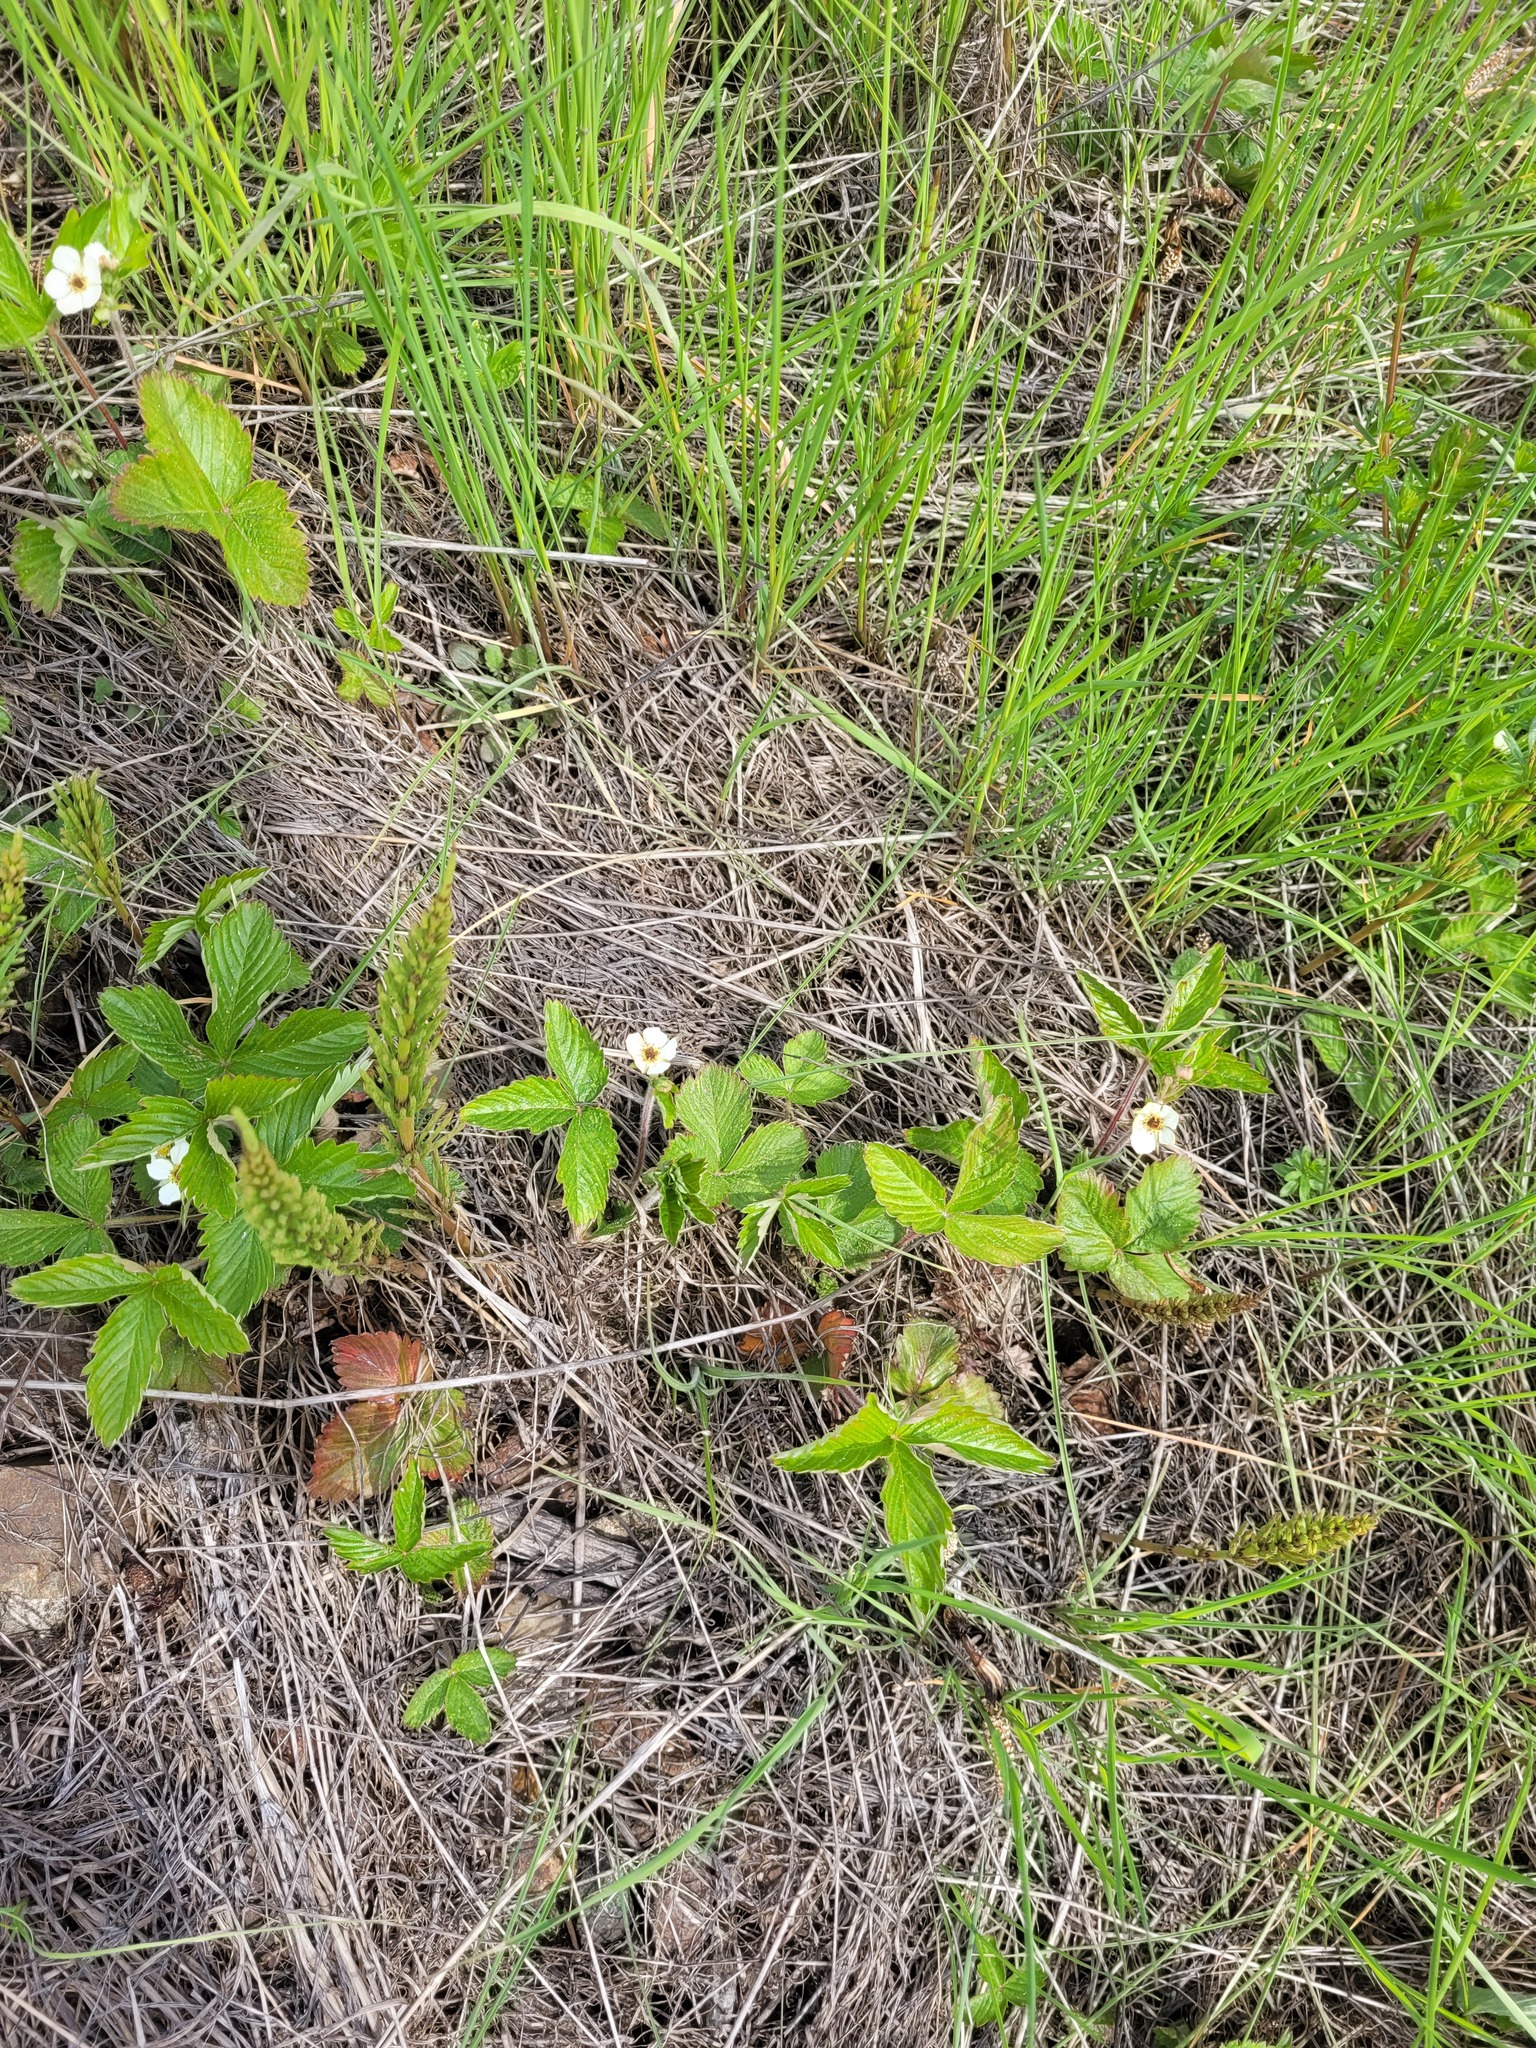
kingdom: Plantae
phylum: Tracheophyta
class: Magnoliopsida
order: Rosales
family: Rosaceae
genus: Fragaria
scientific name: Fragaria vesca
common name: Wild strawberry
